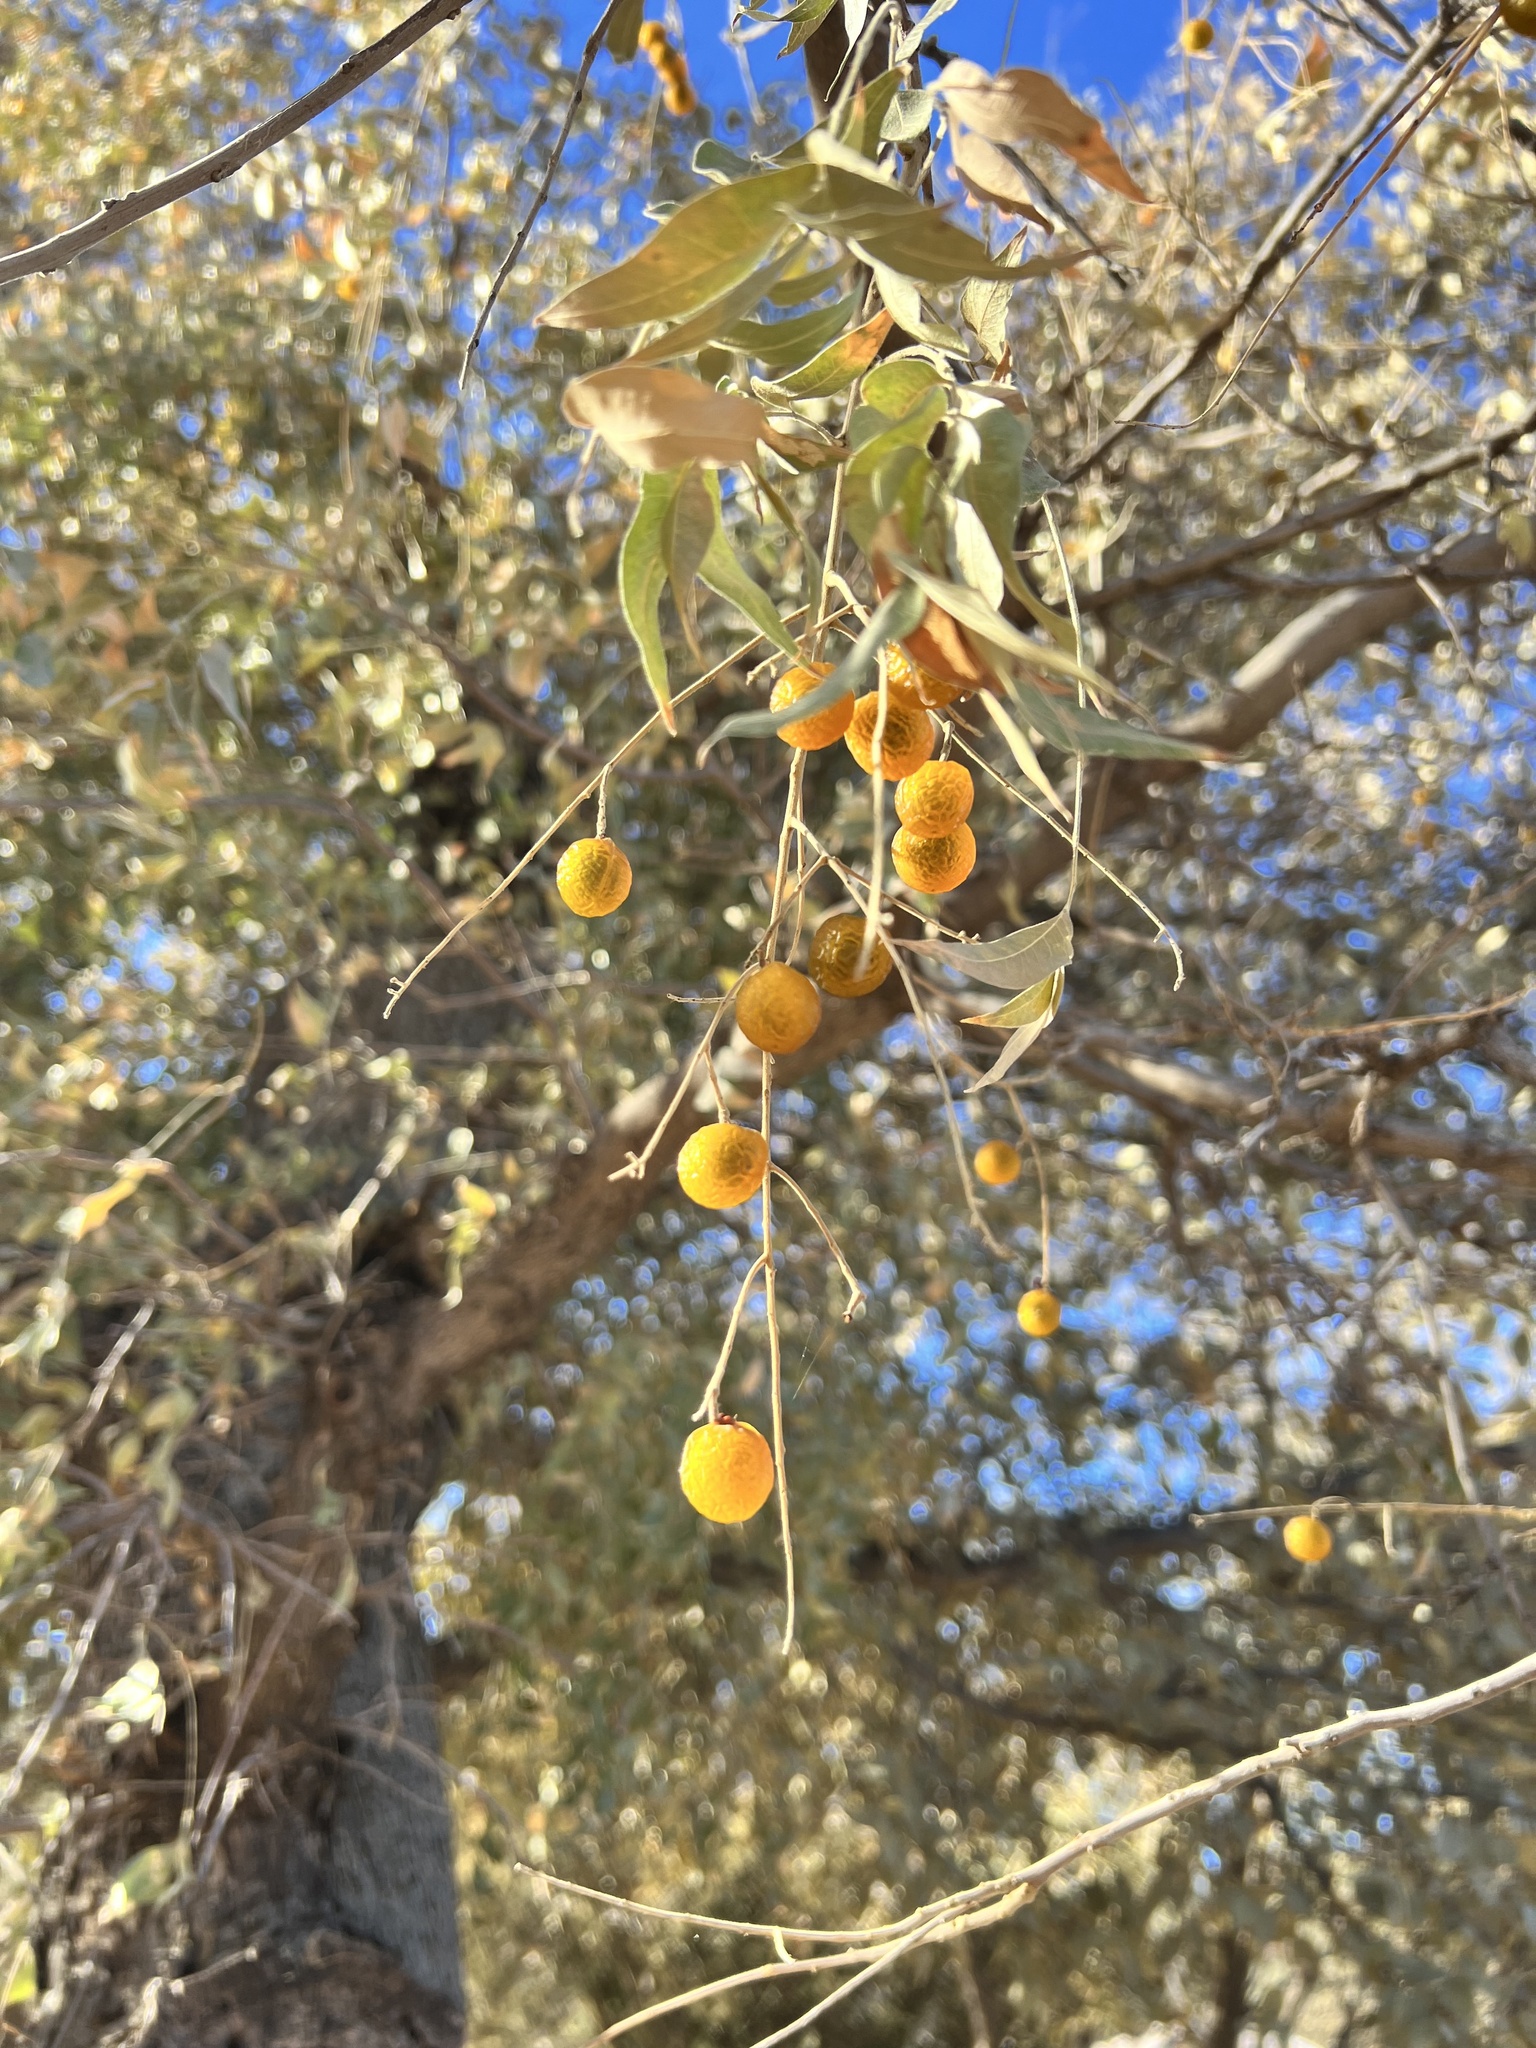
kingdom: Plantae
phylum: Tracheophyta
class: Magnoliopsida
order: Sapindales
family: Sapindaceae
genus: Sapindus
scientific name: Sapindus drummondii
